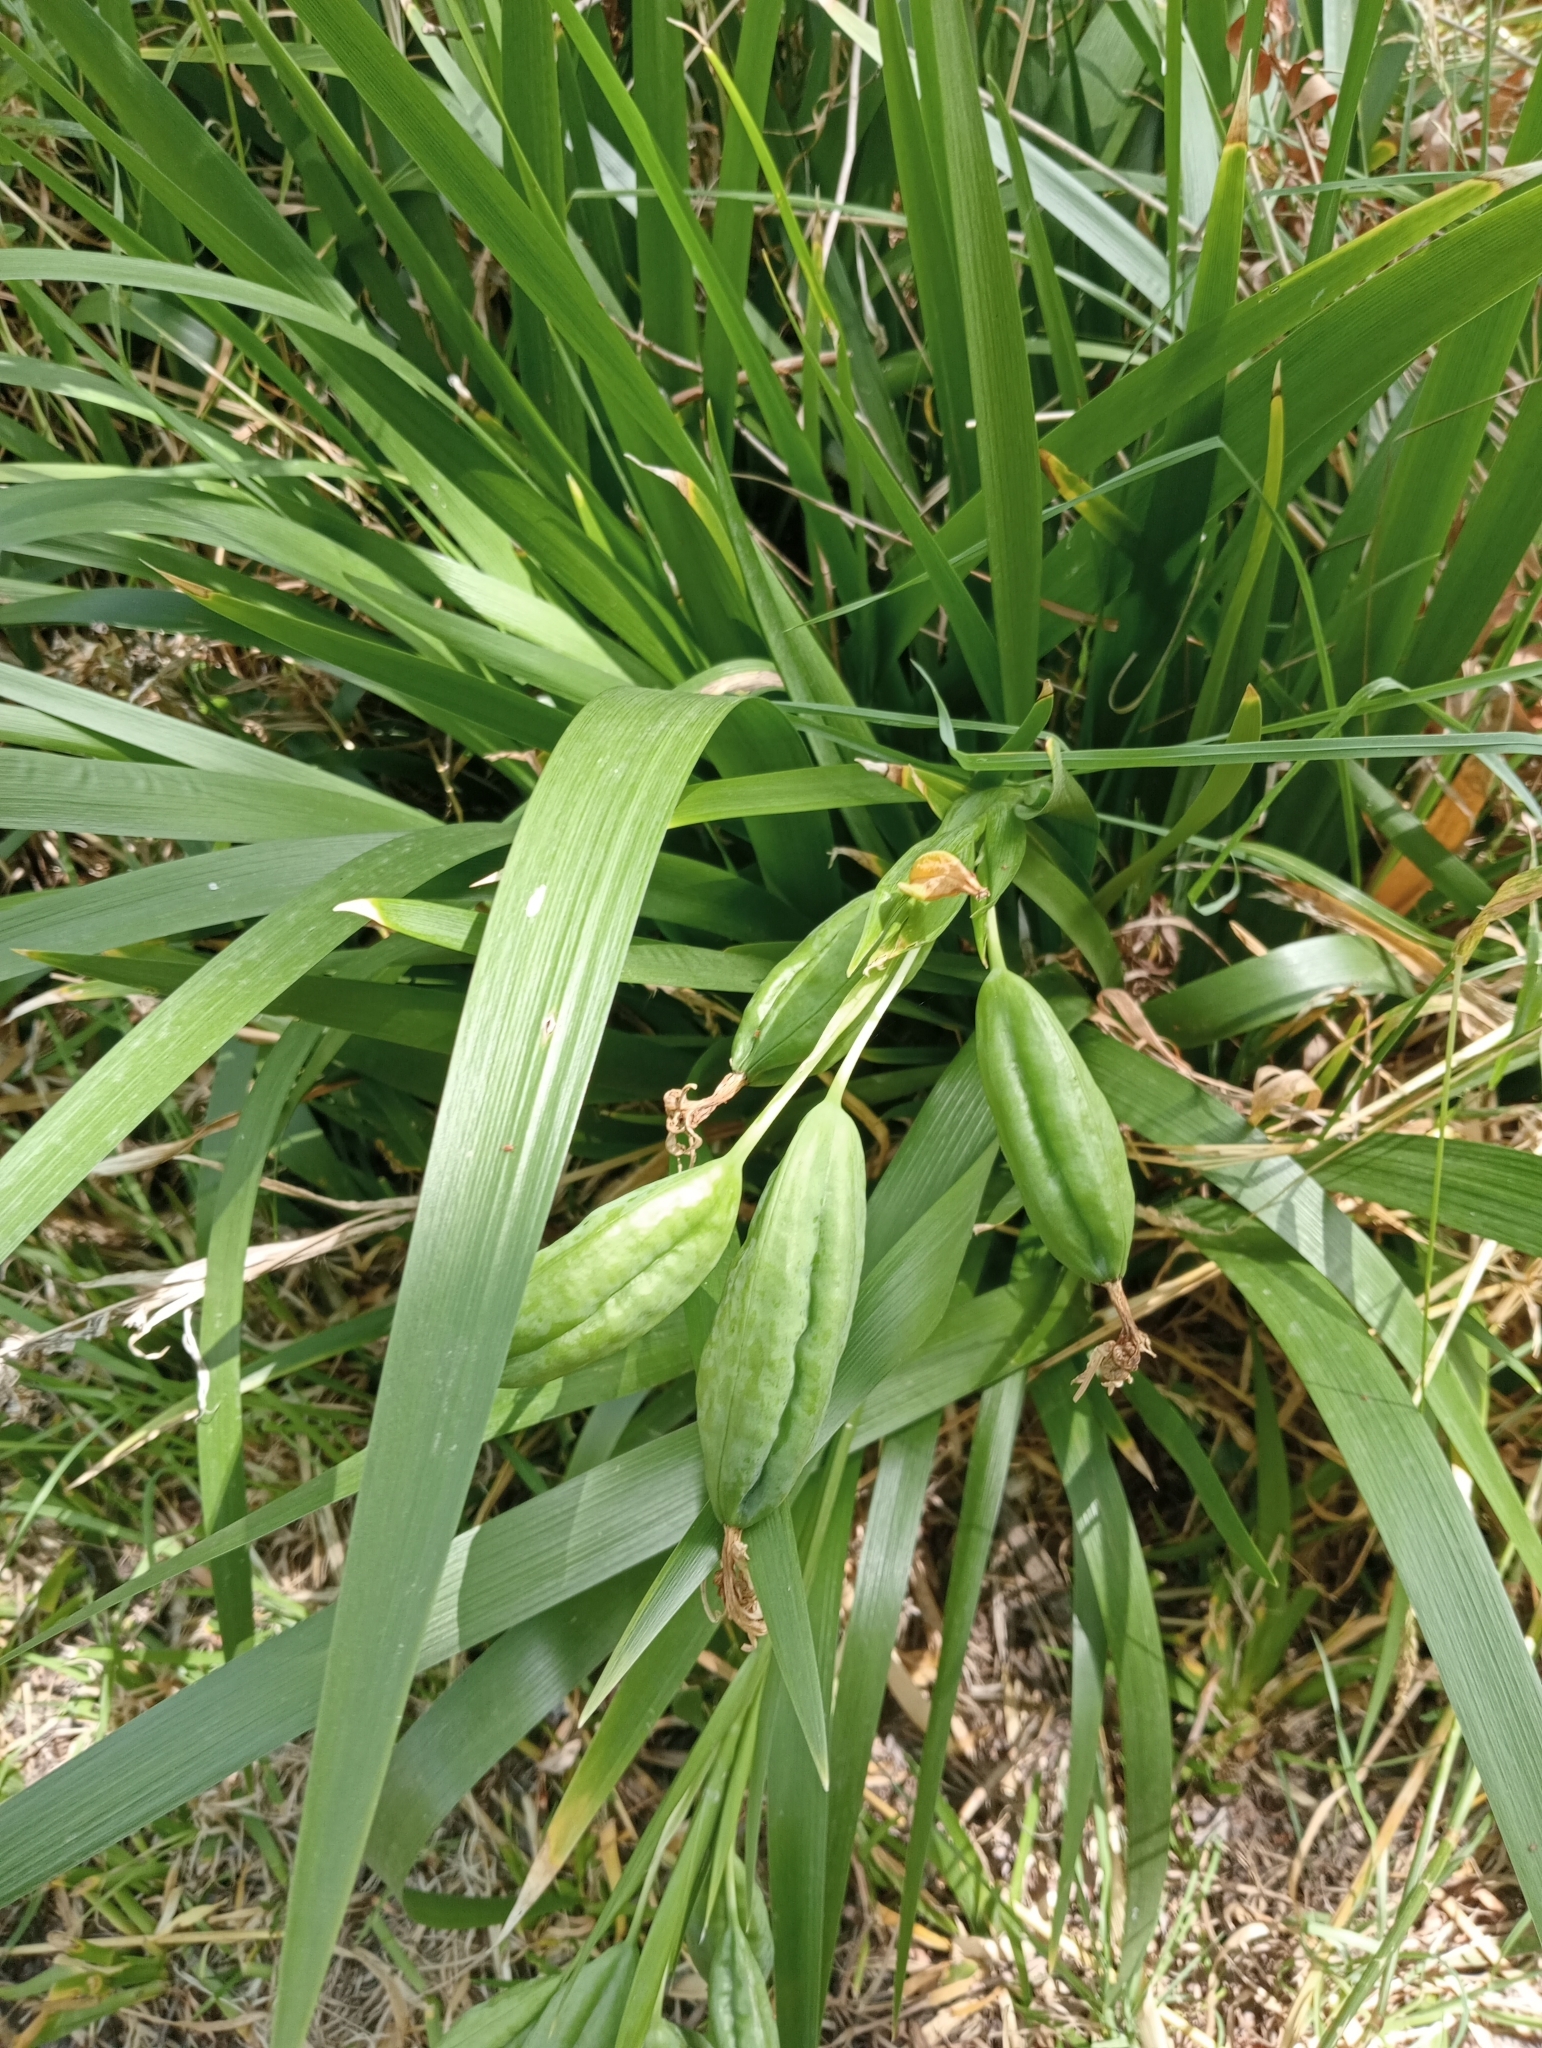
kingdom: Plantae
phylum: Tracheophyta
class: Liliopsida
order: Asparagales
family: Iridaceae
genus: Iris
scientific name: Iris foetidissima
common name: Stinking iris
